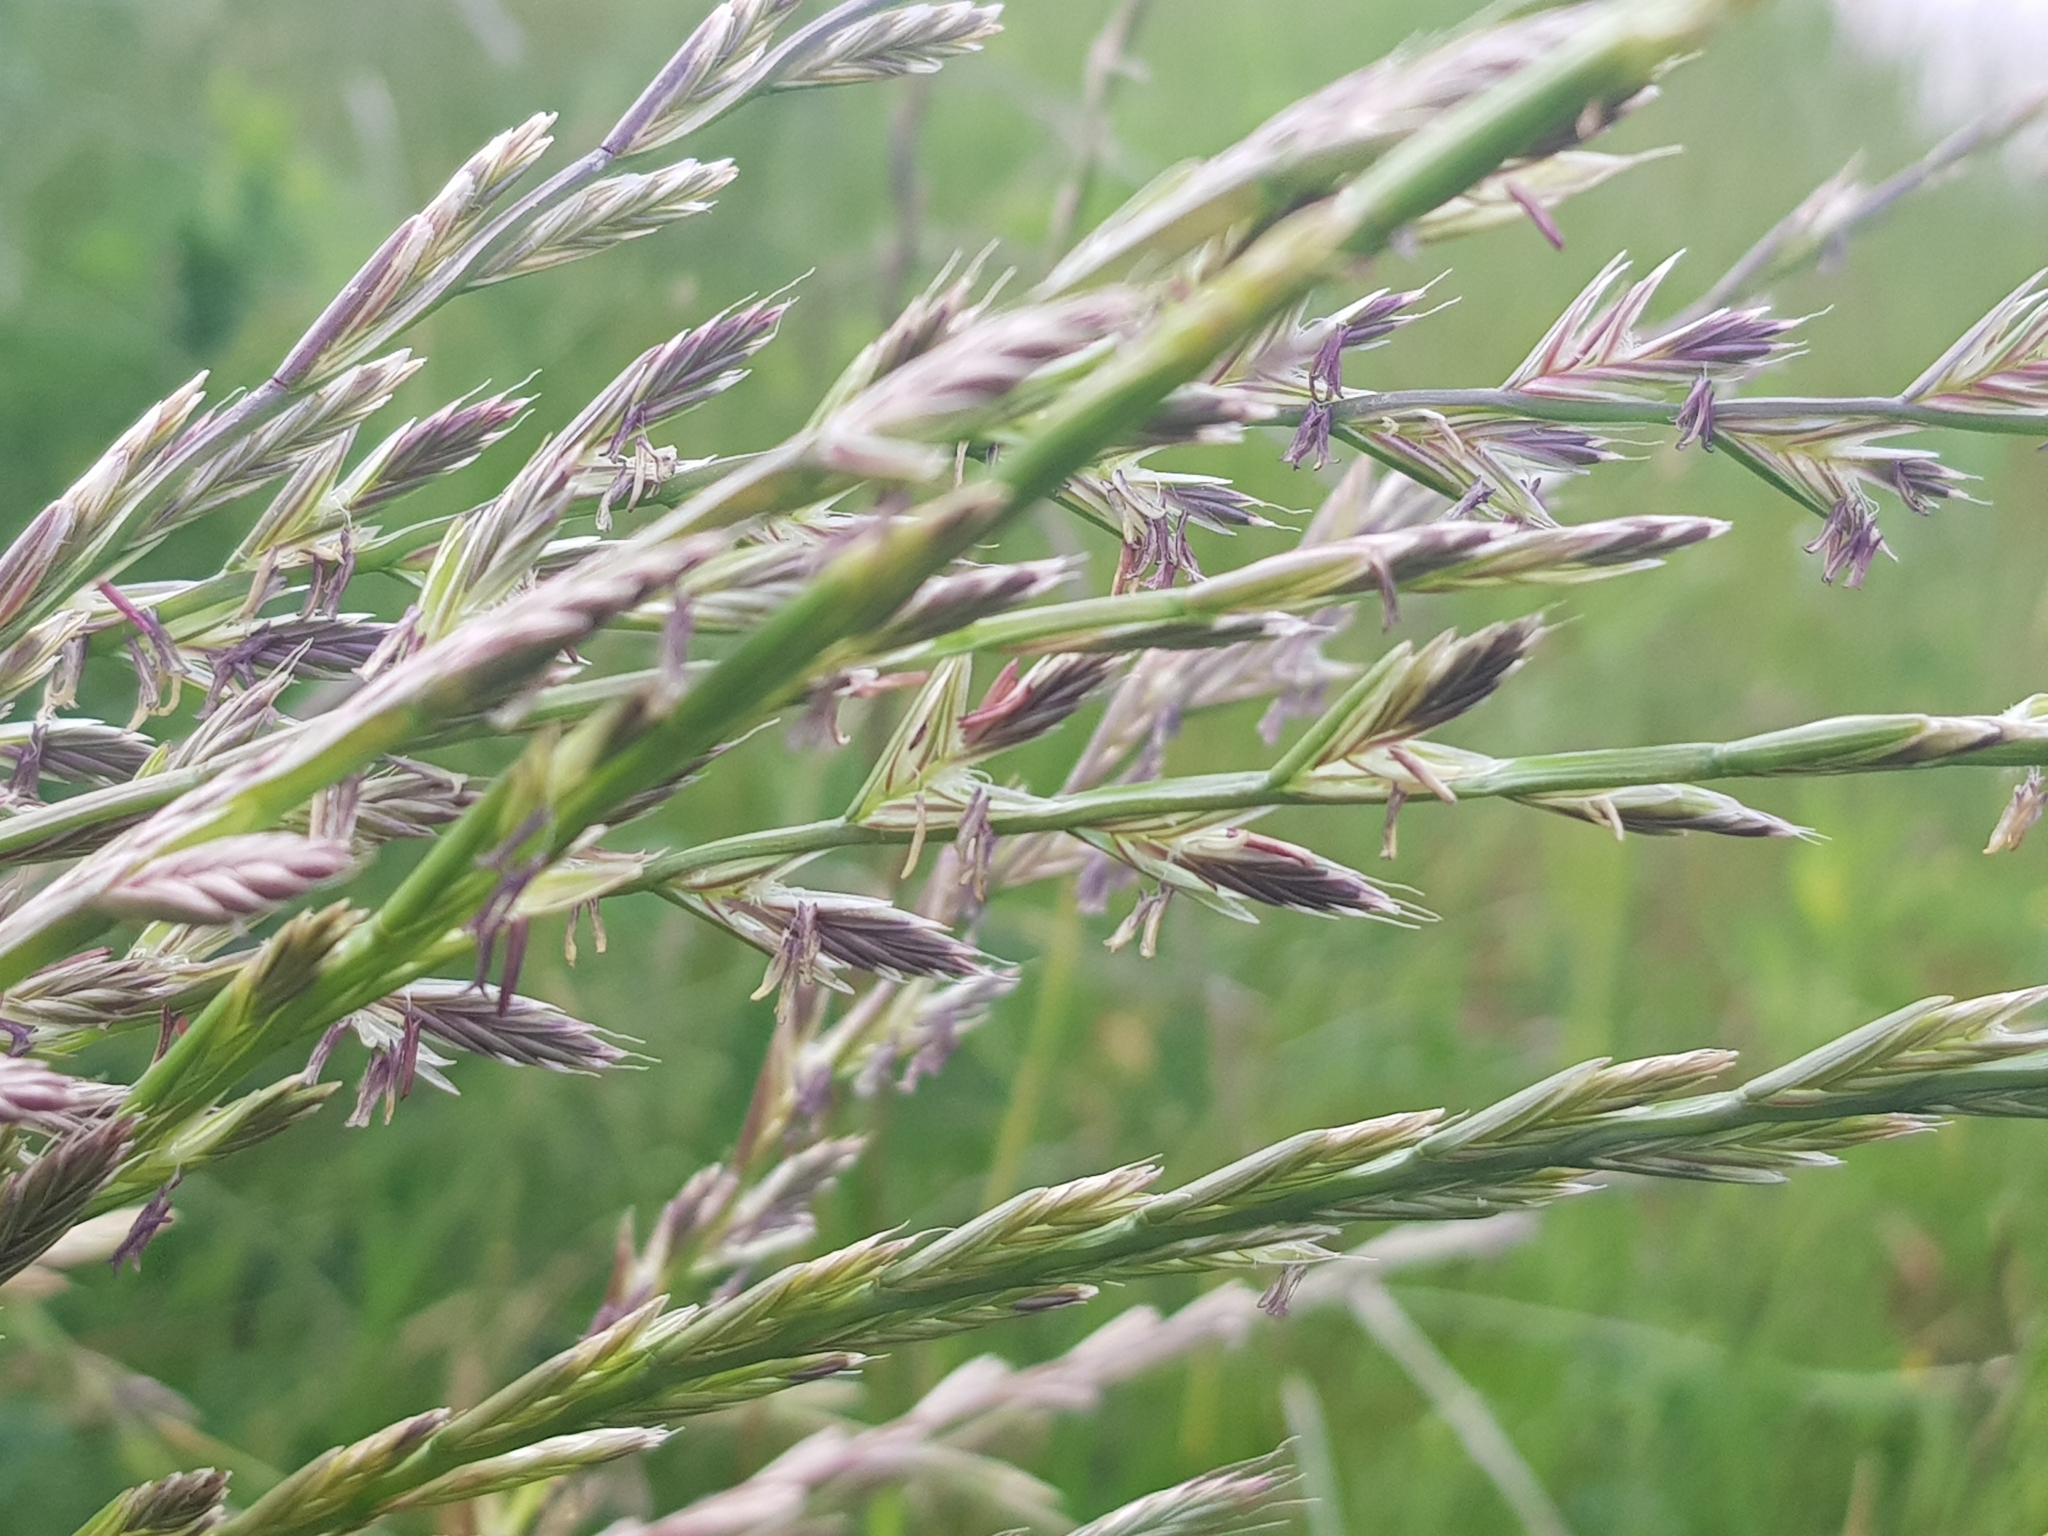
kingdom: Plantae
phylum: Tracheophyta
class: Liliopsida
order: Poales
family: Poaceae
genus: Lolium
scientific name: Lolium perenne
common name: Perennial ryegrass
